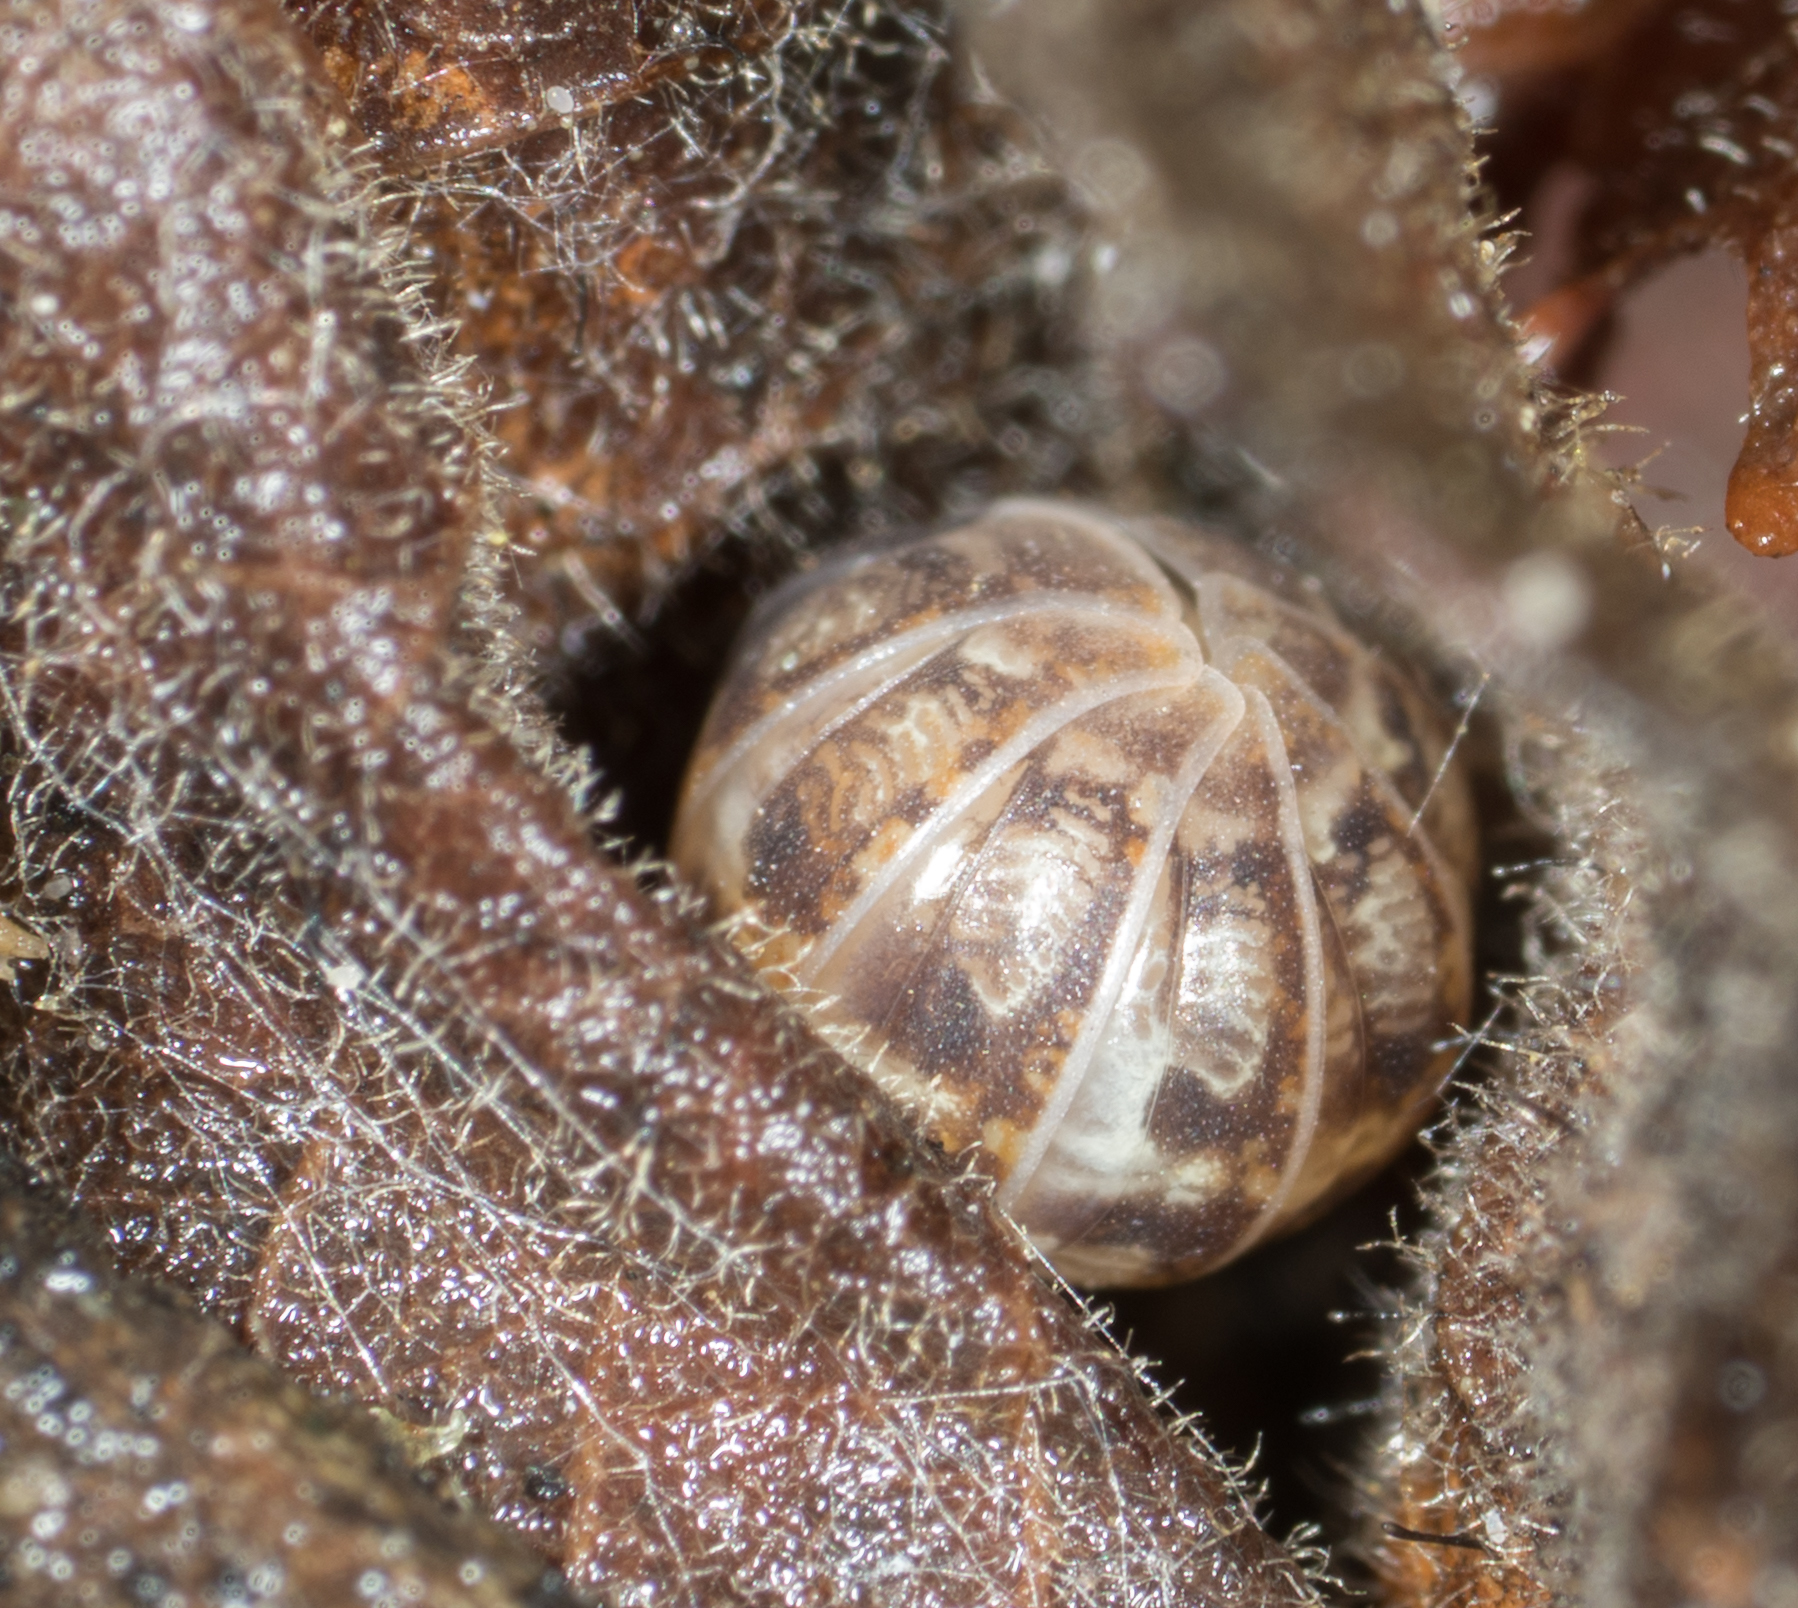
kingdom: Animalia
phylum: Arthropoda
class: Malacostraca
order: Isopoda
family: Armadillidiidae
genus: Armadillidium
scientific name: Armadillidium vulgare
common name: Common pill woodlouse
